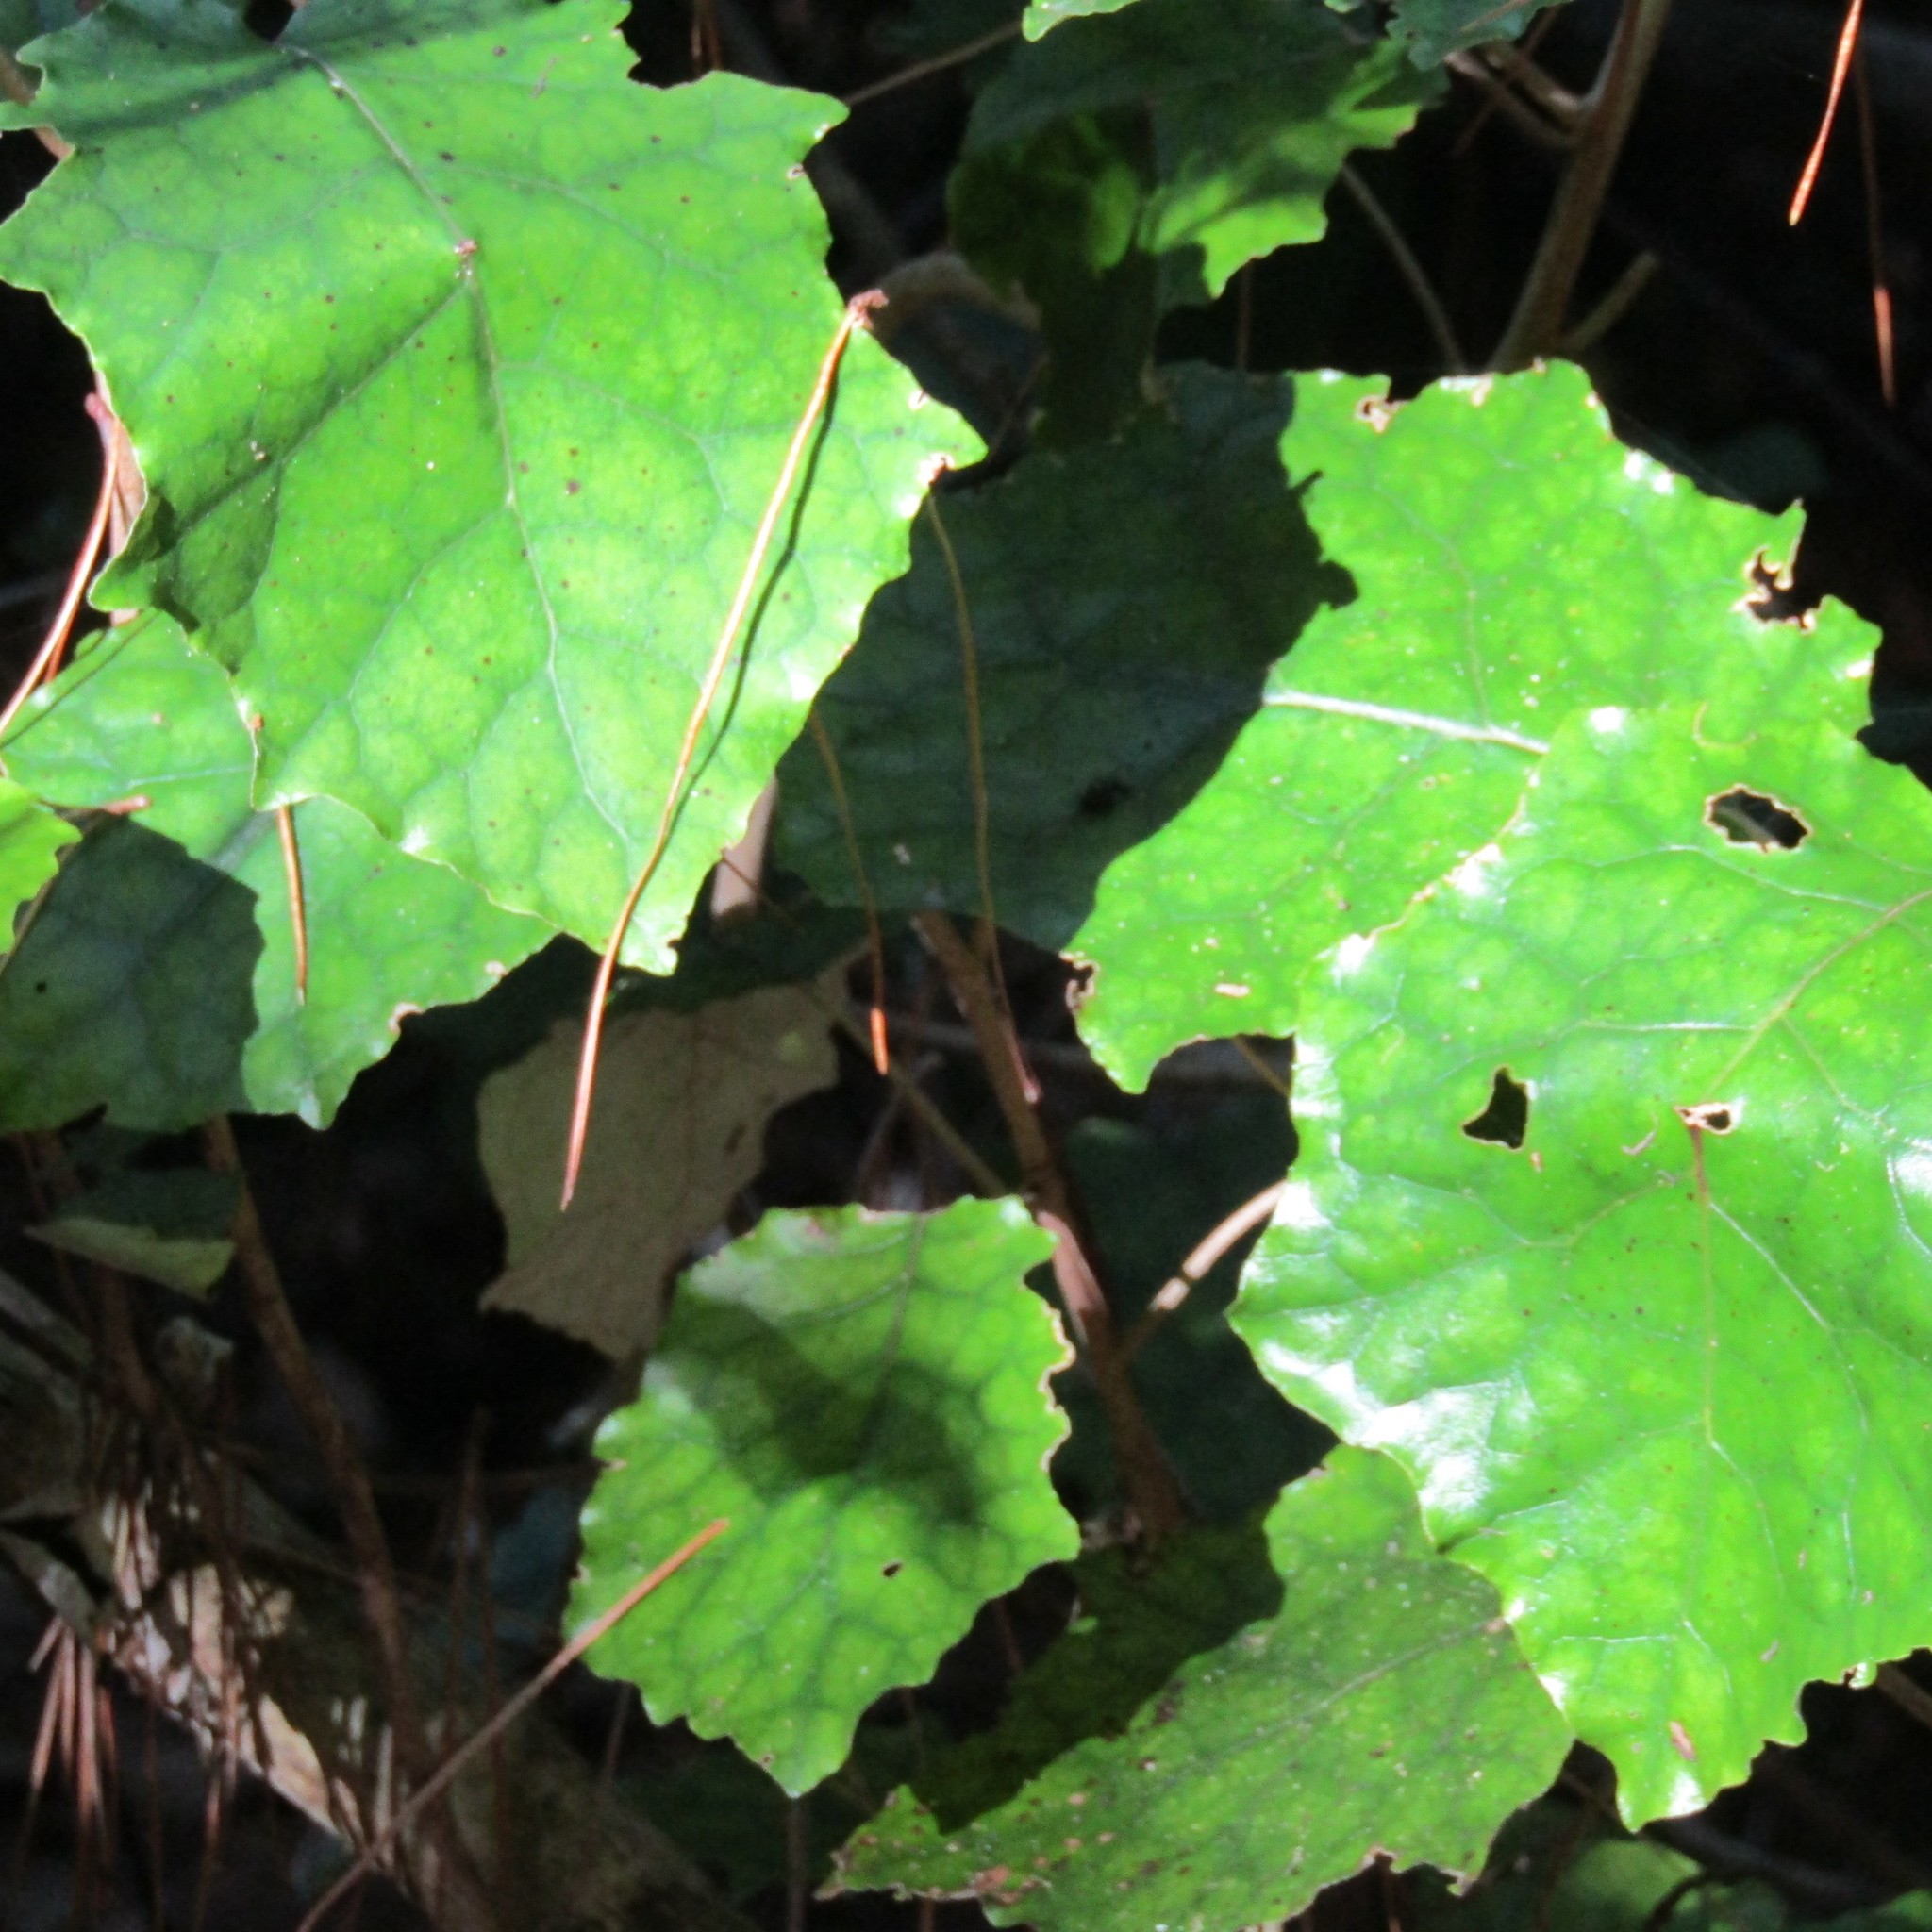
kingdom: Plantae
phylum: Tracheophyta
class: Magnoliopsida
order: Asterales
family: Asteraceae
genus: Brachyglottis
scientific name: Brachyglottis repanda
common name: Hedge ragwort
